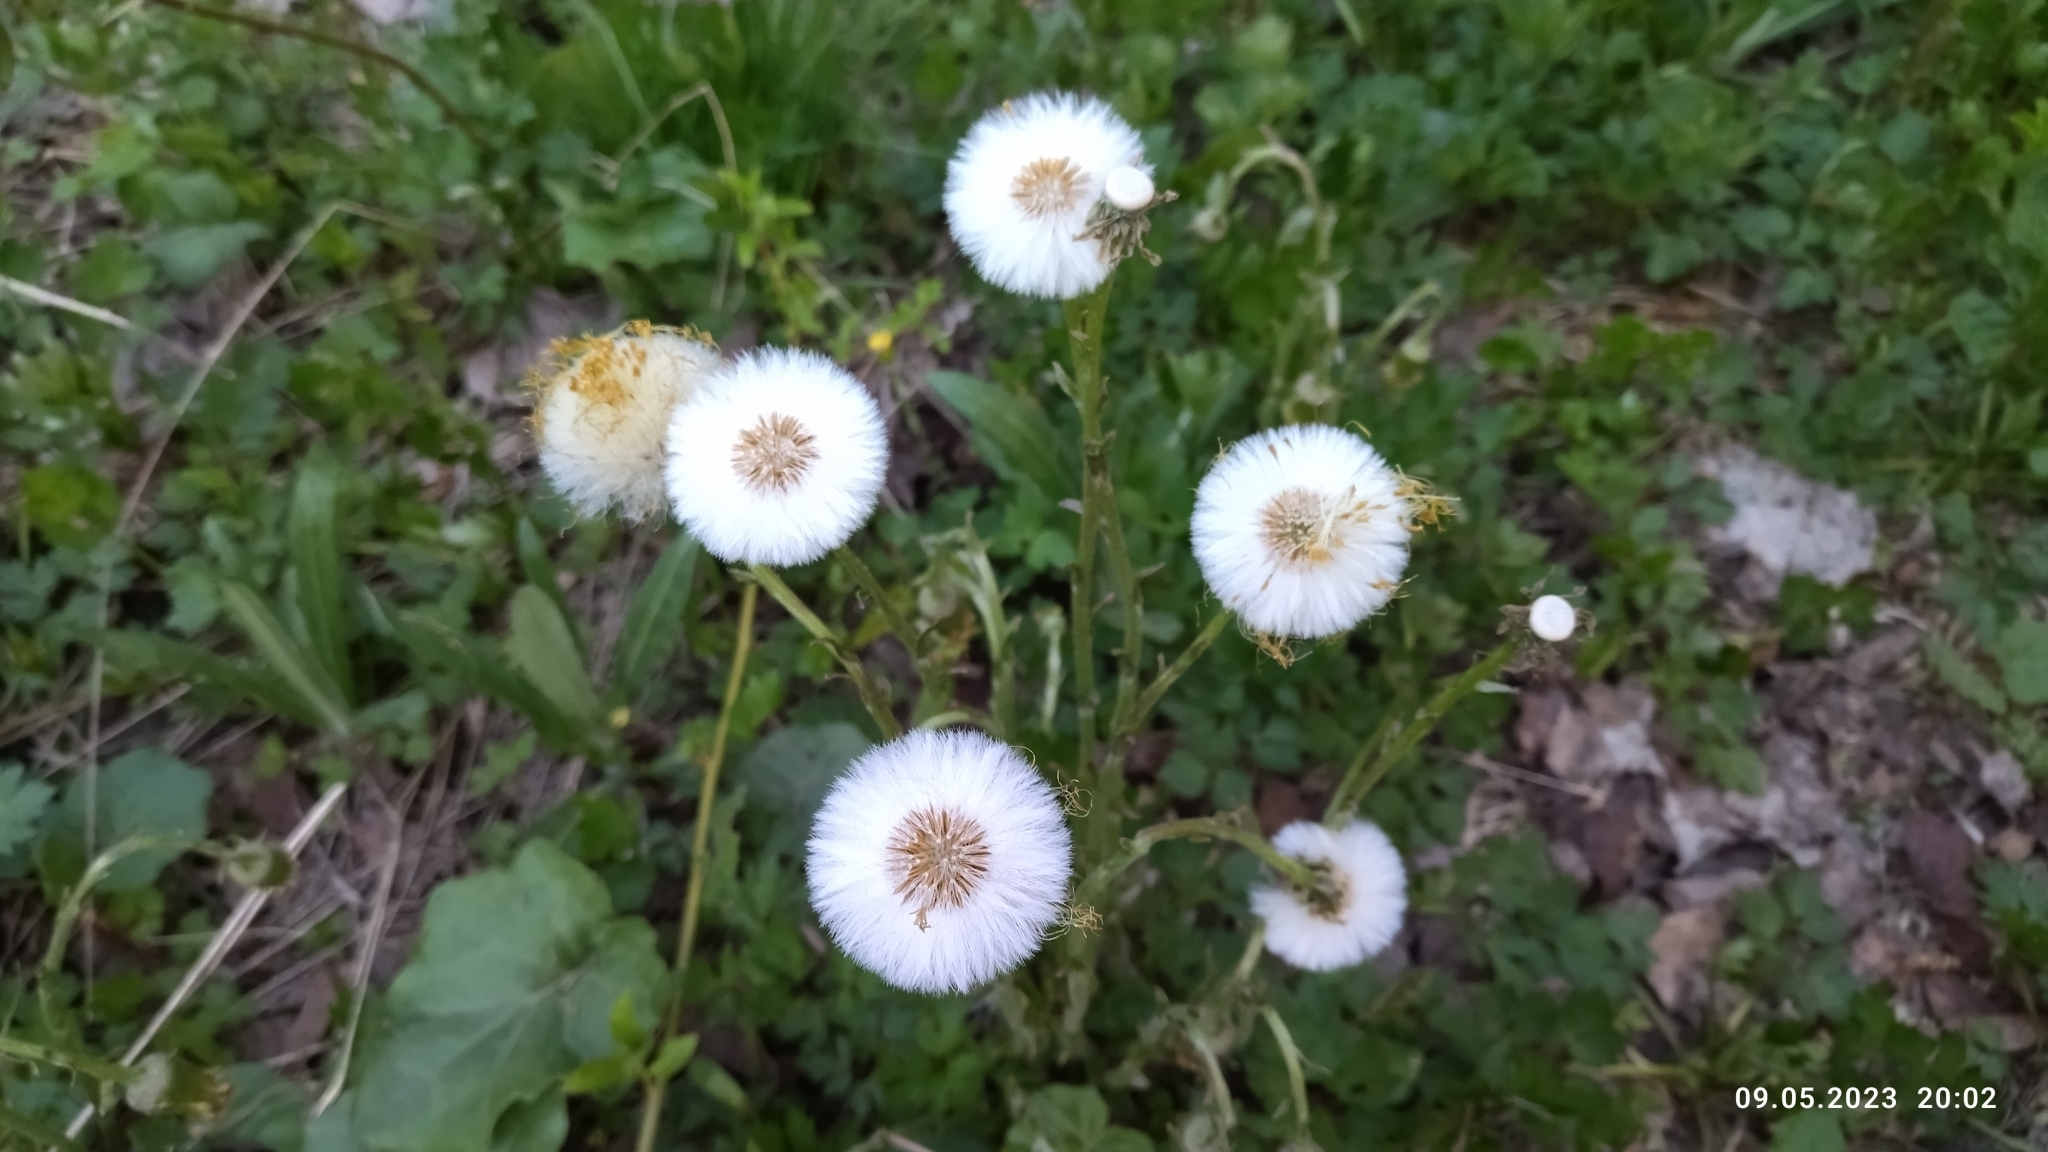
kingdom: Plantae
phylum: Tracheophyta
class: Magnoliopsida
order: Asterales
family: Asteraceae
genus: Tussilago
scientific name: Tussilago farfara
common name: Coltsfoot
